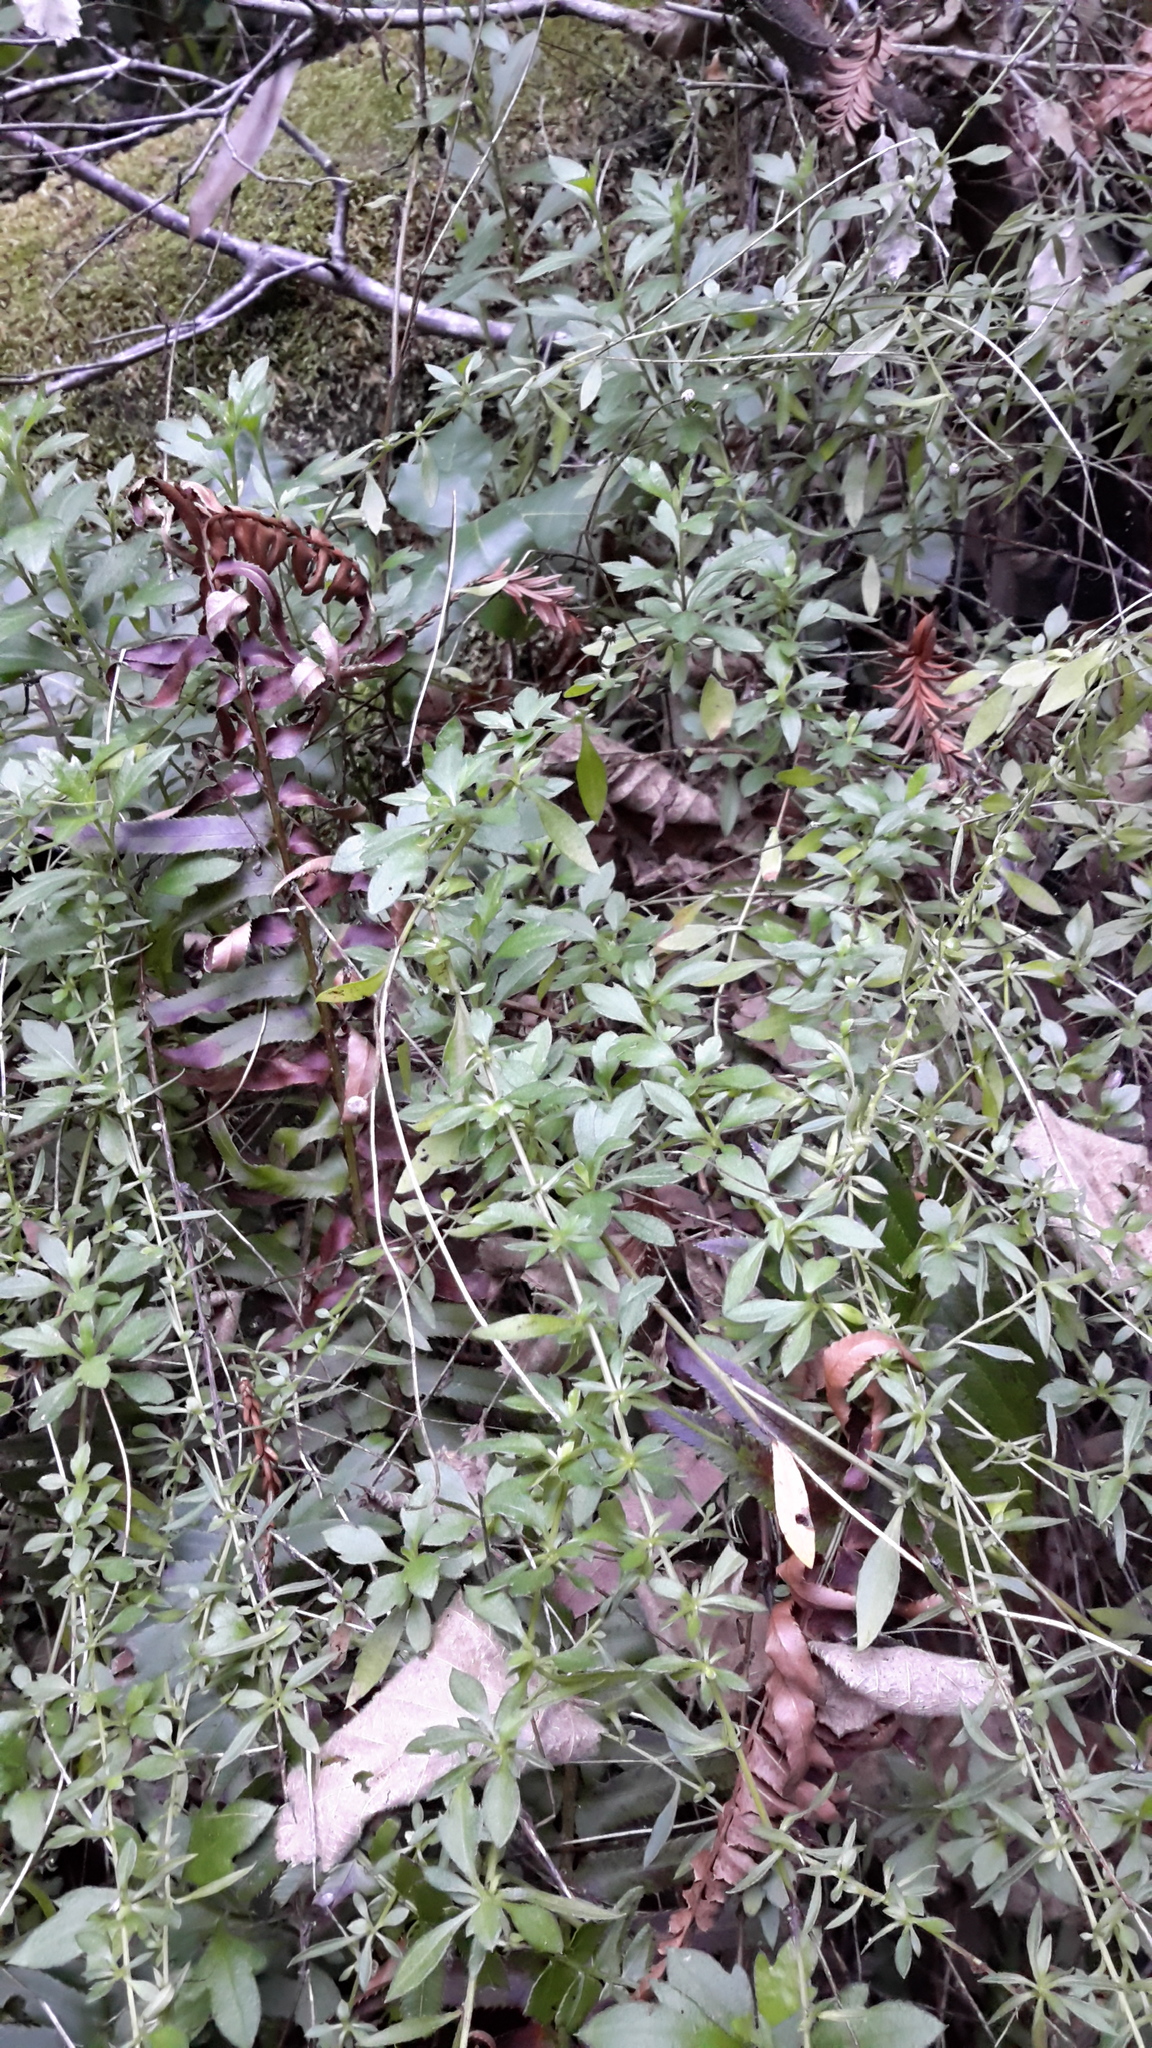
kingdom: Plantae
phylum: Tracheophyta
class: Magnoliopsida
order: Asterales
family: Asteraceae
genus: Erigeron
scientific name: Erigeron karvinskianus
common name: Mexican fleabane
